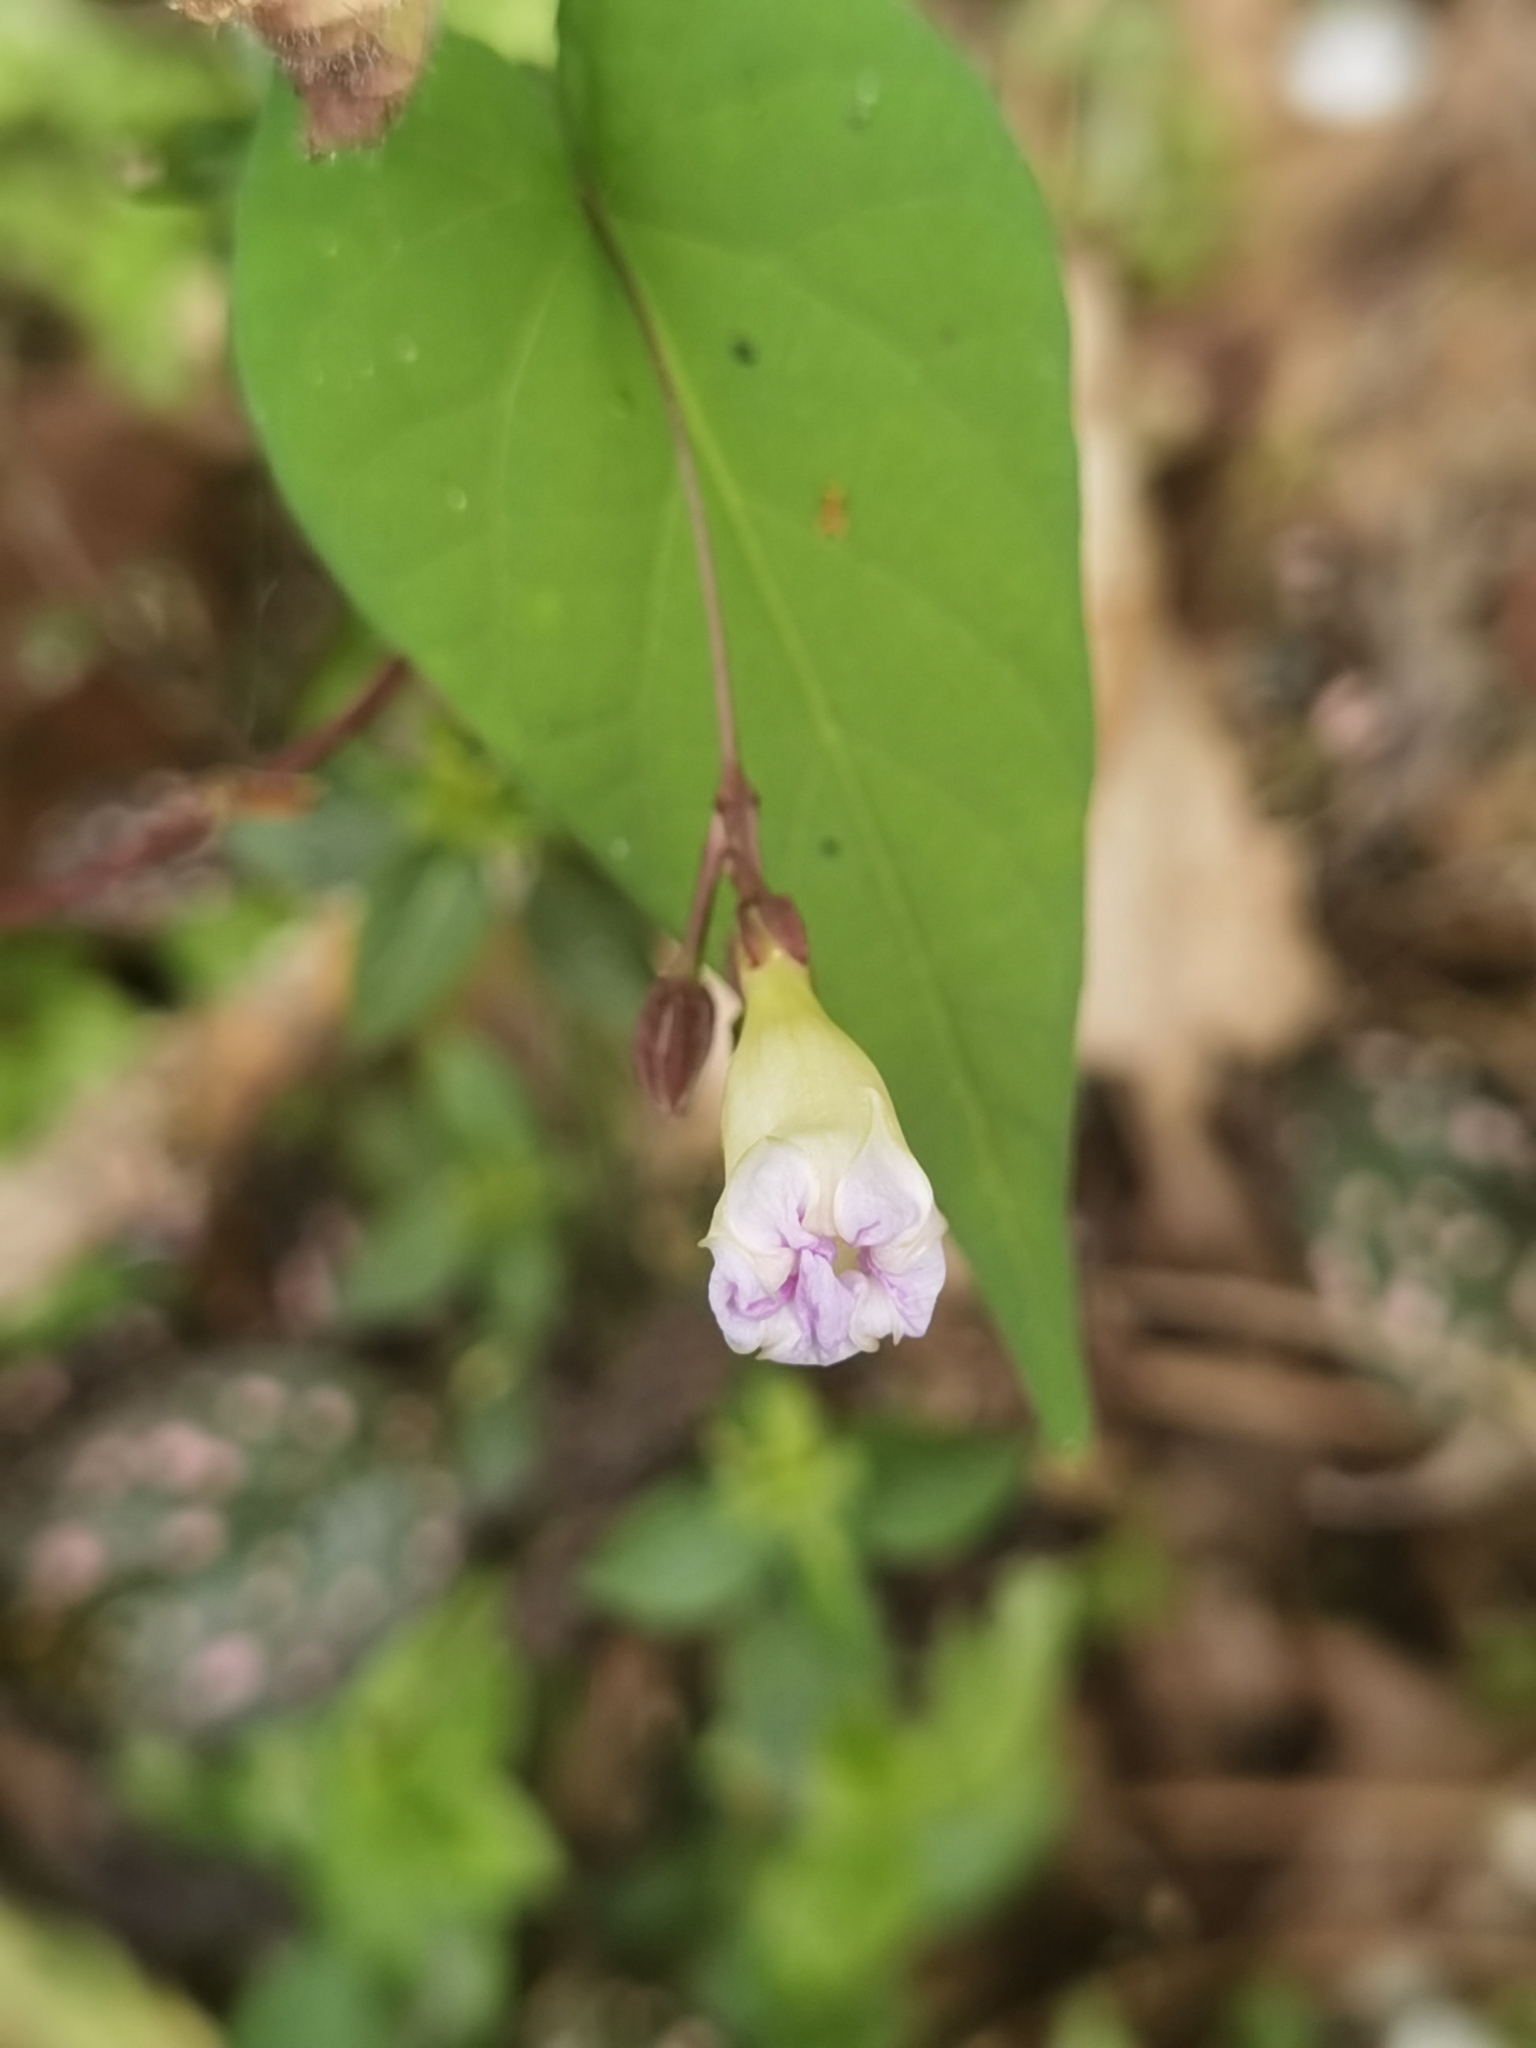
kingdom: Plantae
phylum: Tracheophyta
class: Magnoliopsida
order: Solanales
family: Convolvulaceae
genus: Ipomoea
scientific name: Ipomoea aristolochiifolia
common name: Aristolochia-leaved morning-glory
